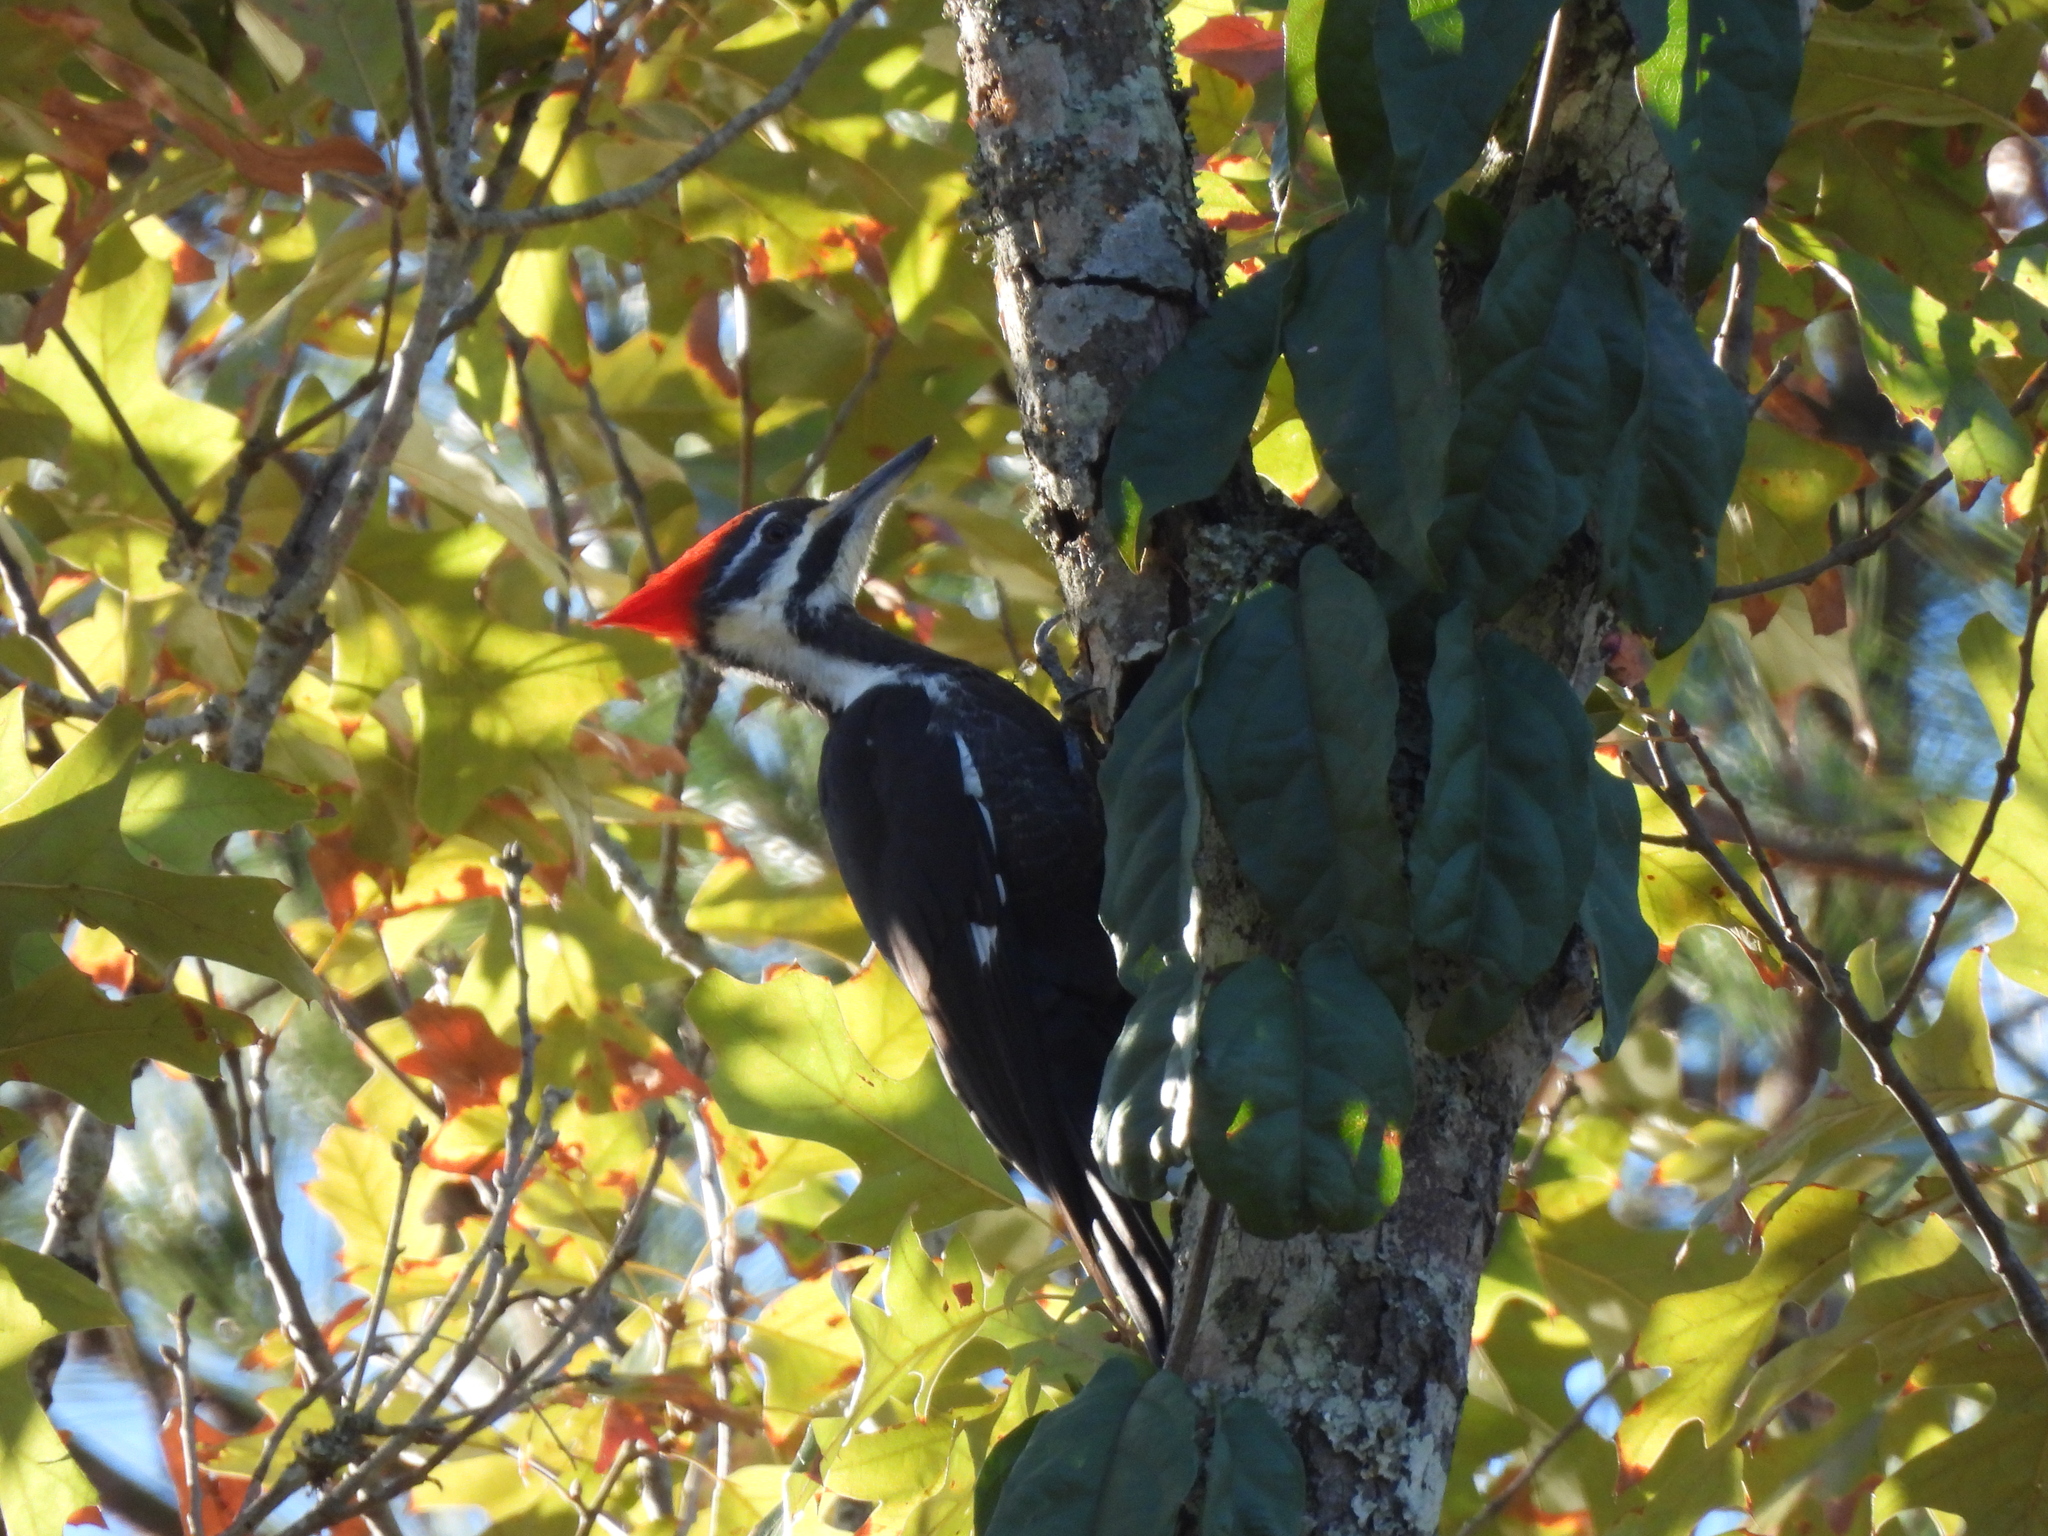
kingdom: Animalia
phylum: Chordata
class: Aves
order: Piciformes
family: Picidae
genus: Dryocopus
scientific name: Dryocopus pileatus
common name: Pileated woodpecker
